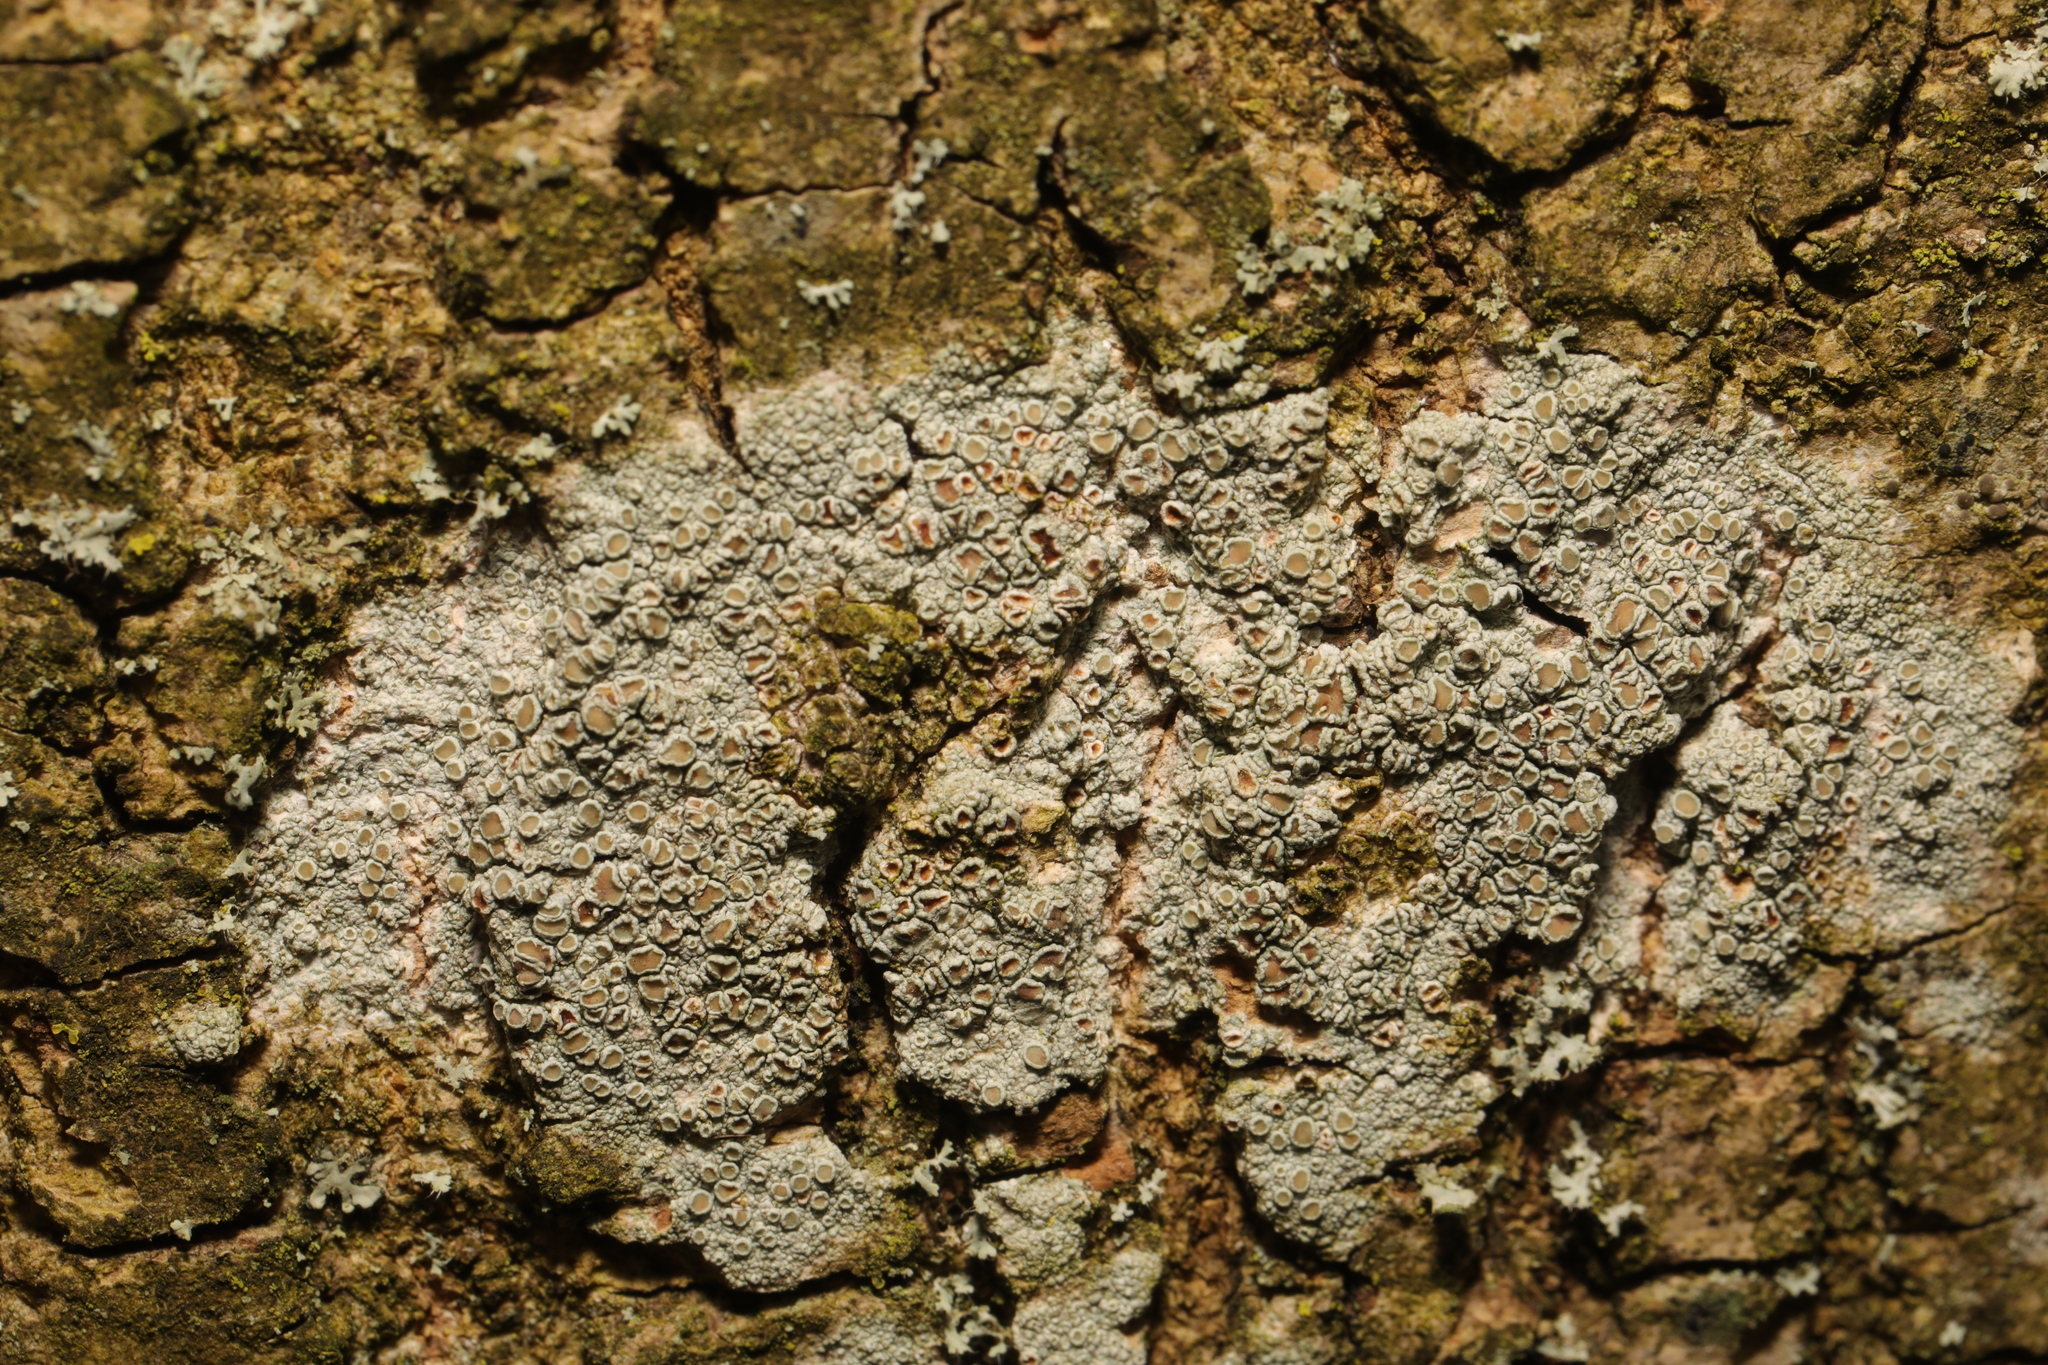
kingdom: Fungi
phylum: Ascomycota
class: Lecanoromycetes
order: Lecanorales
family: Lecanoraceae
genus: Lecanora
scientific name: Lecanora chlarotera
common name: Brown rim-lichen
